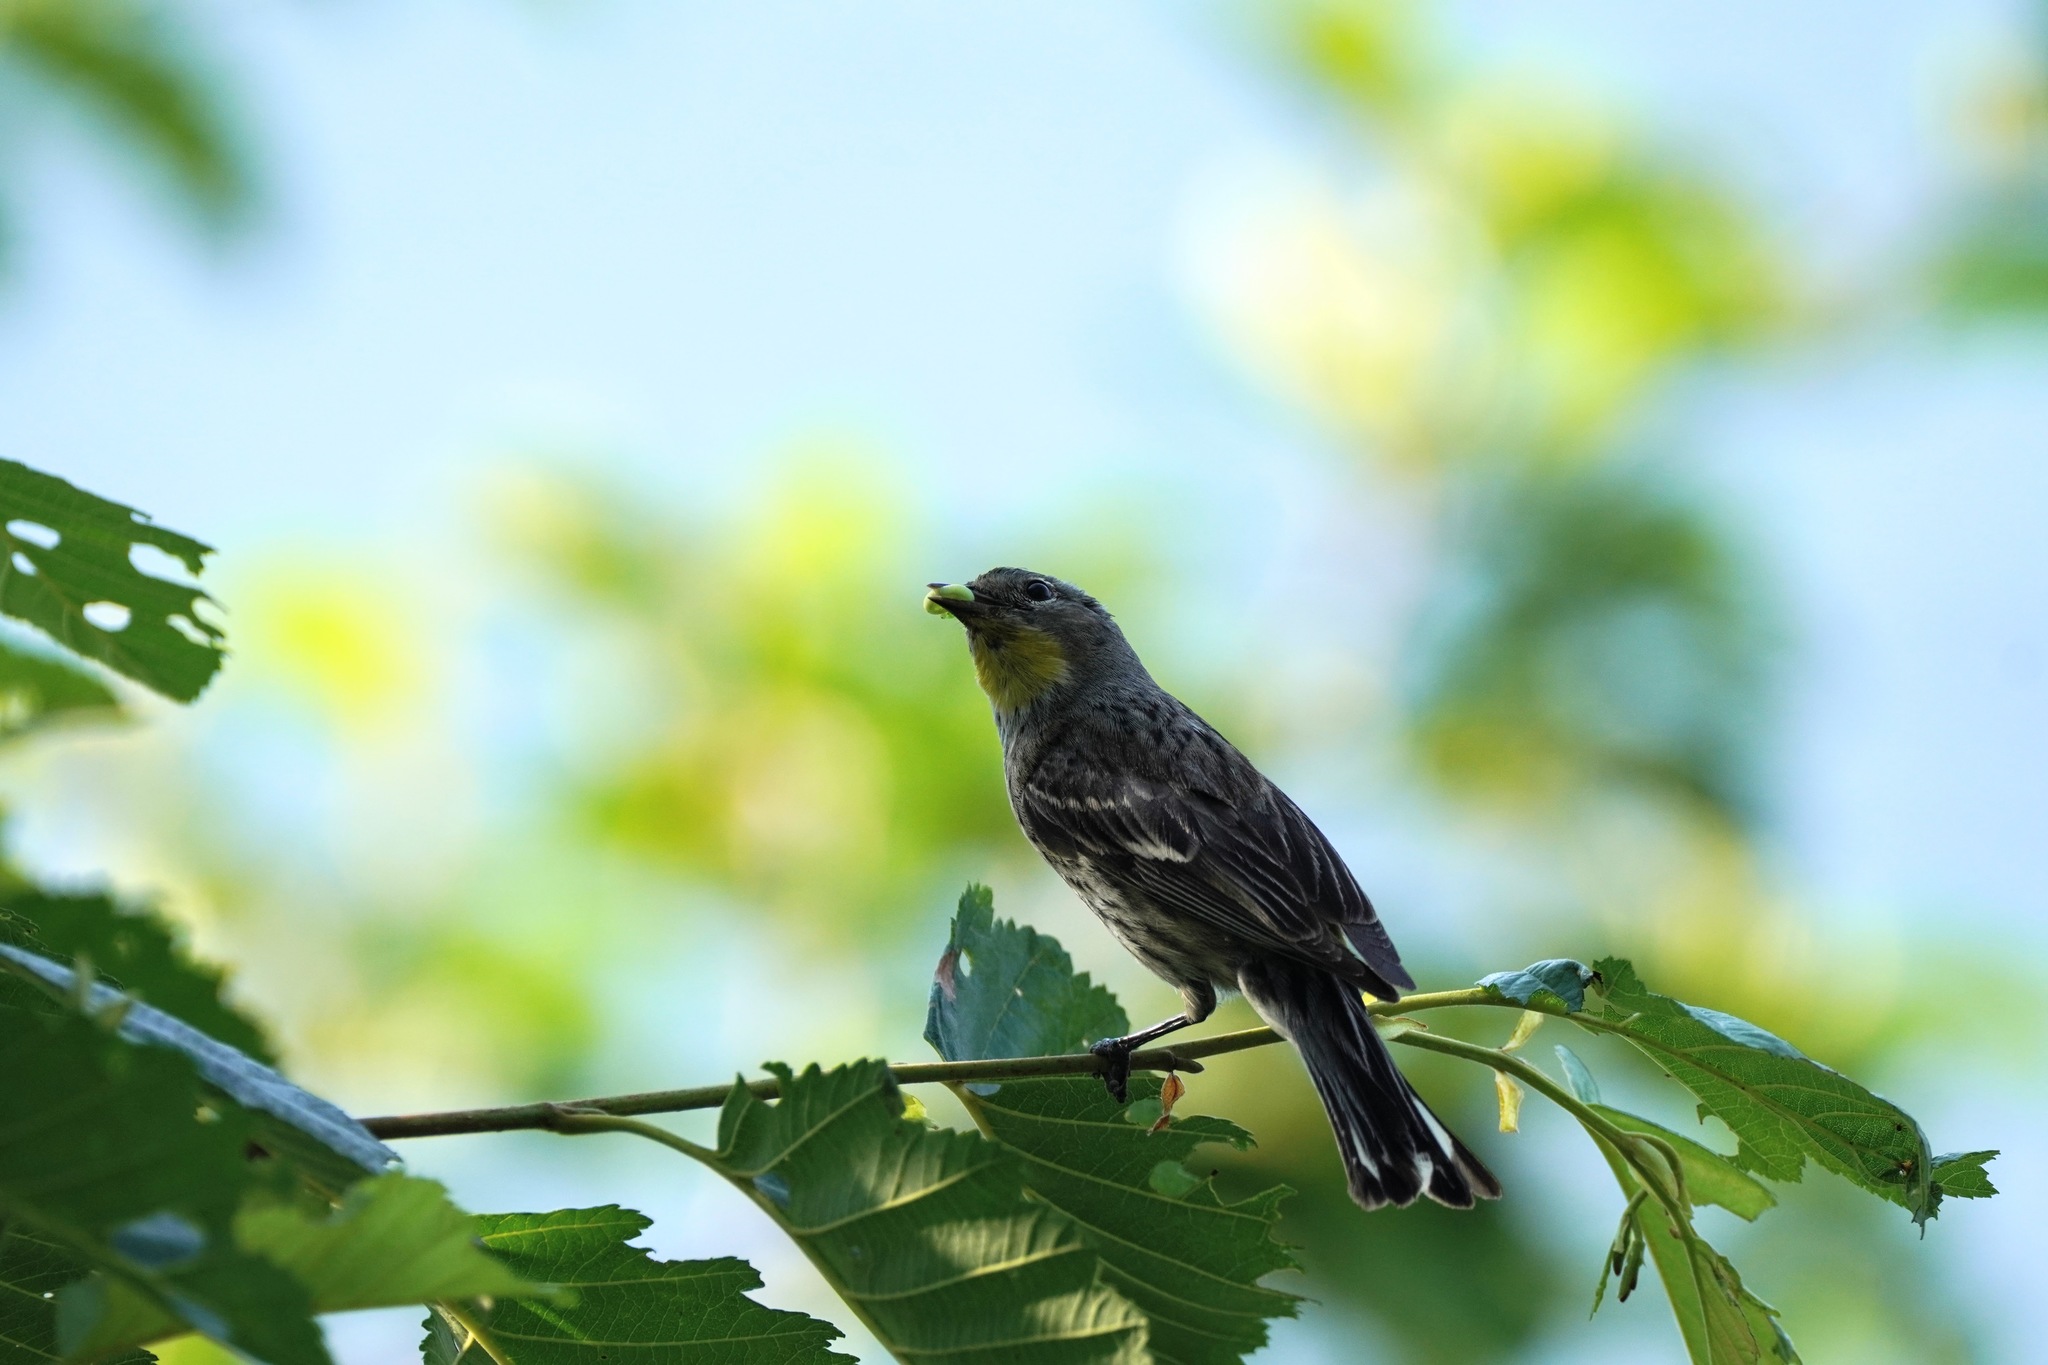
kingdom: Animalia
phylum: Chordata
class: Aves
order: Passeriformes
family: Parulidae
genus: Setophaga
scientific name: Setophaga auduboni
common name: Audubon's warbler
